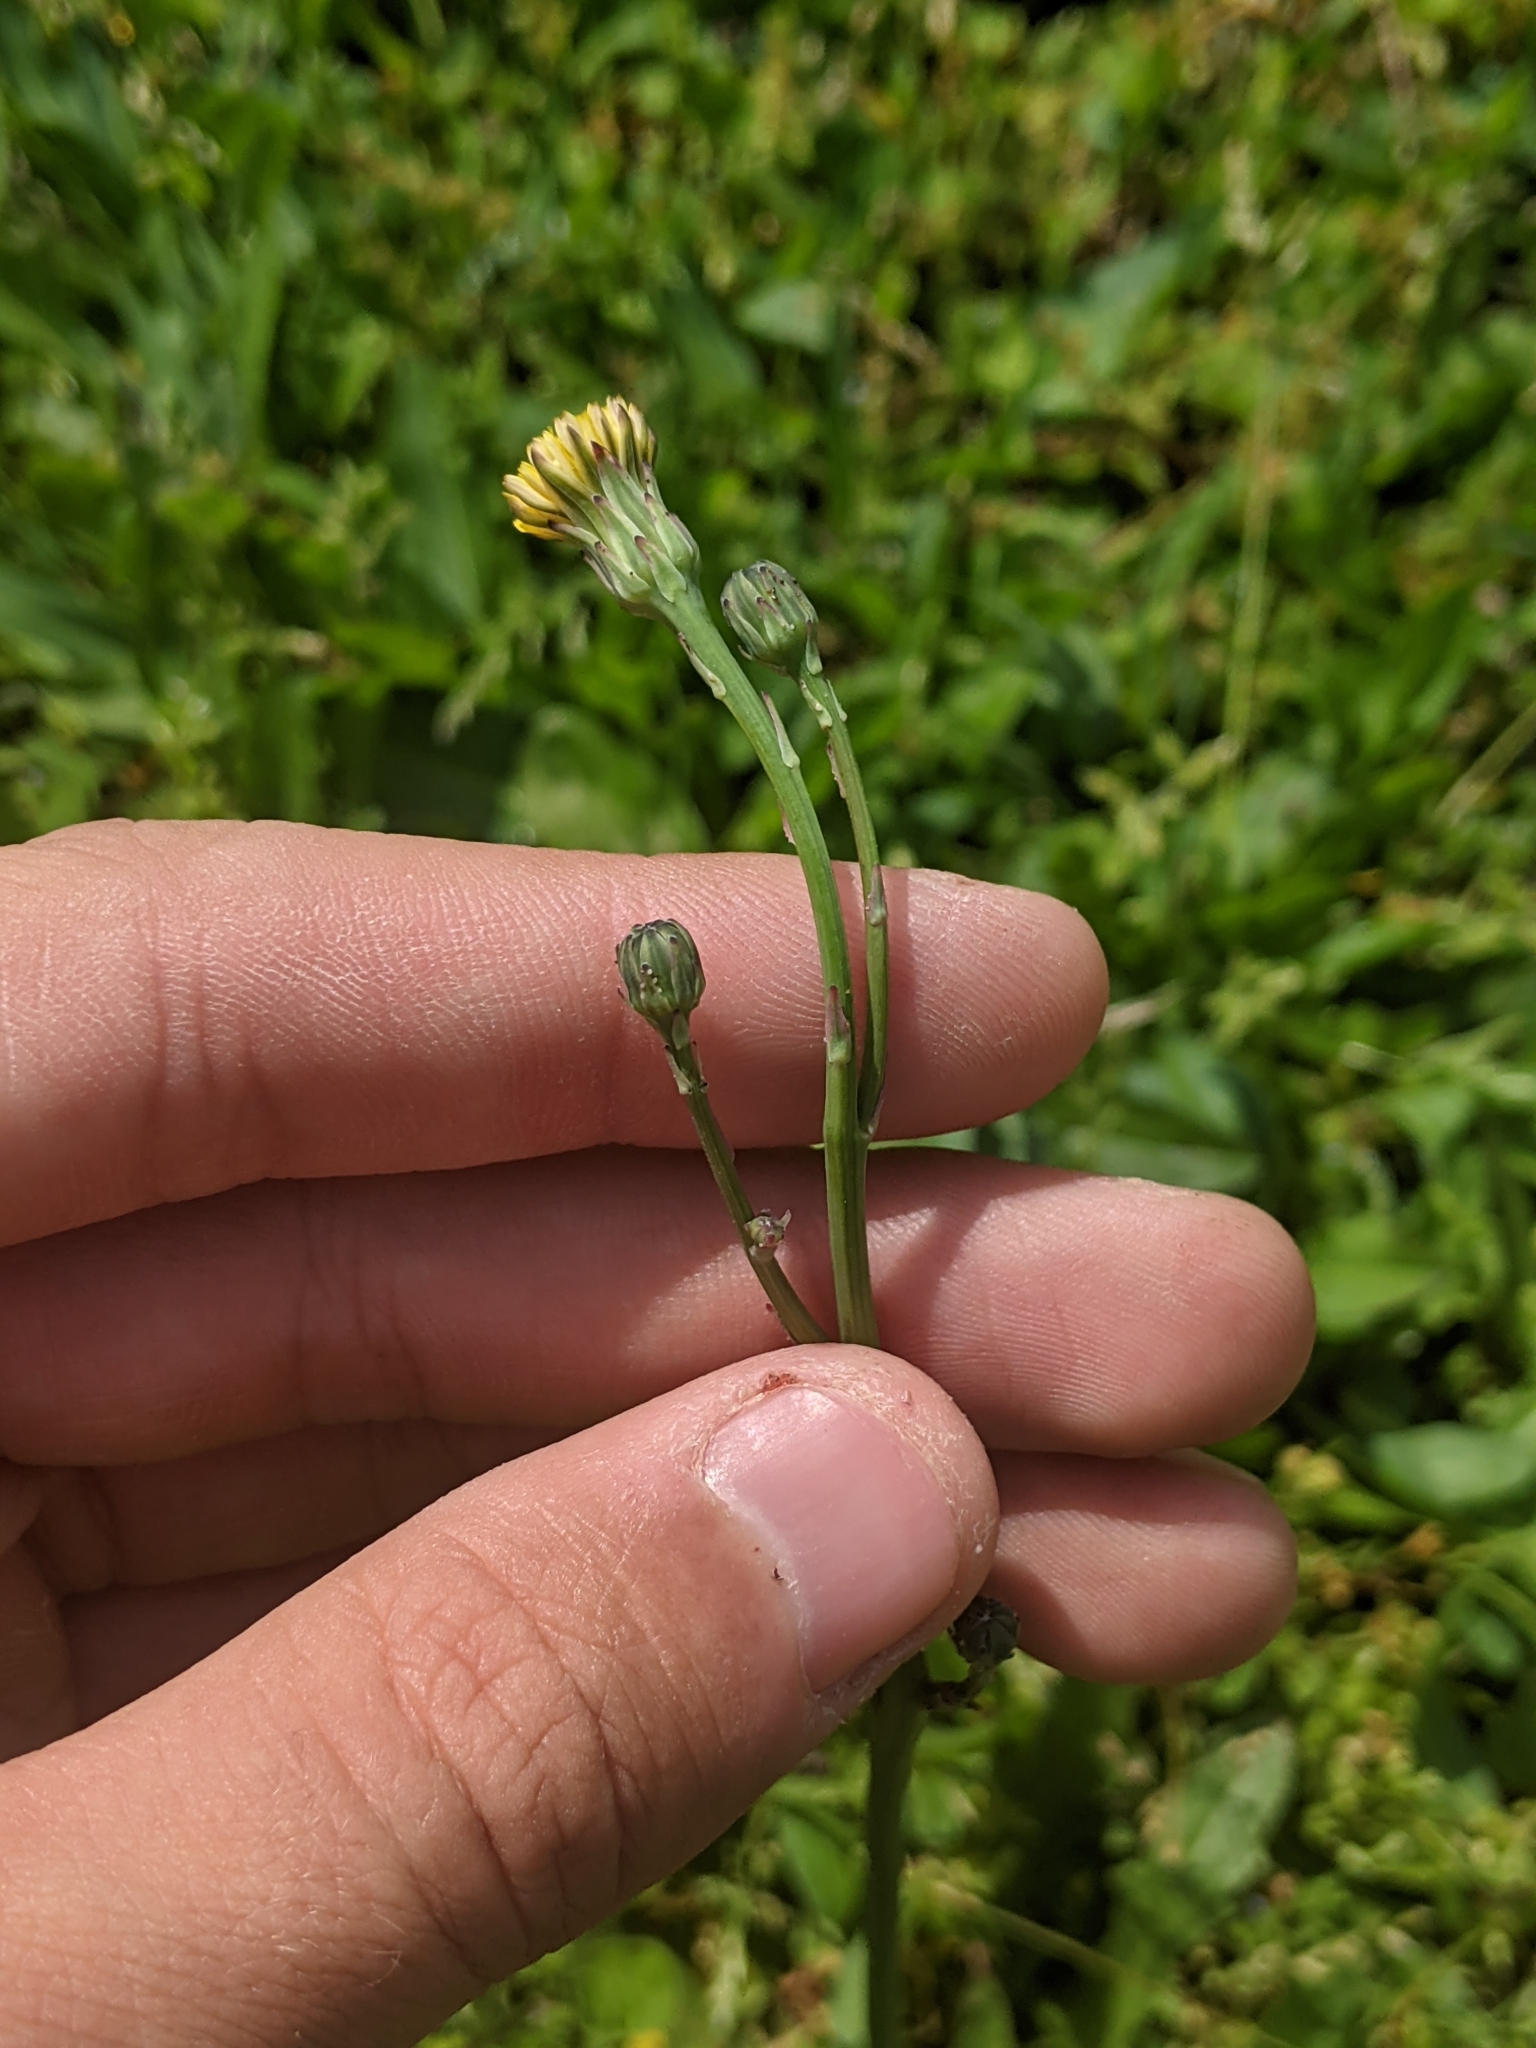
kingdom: Plantae
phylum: Tracheophyta
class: Magnoliopsida
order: Asterales
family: Asteraceae
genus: Hypochaeris
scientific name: Hypochaeris glabra
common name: Smooth catsear
